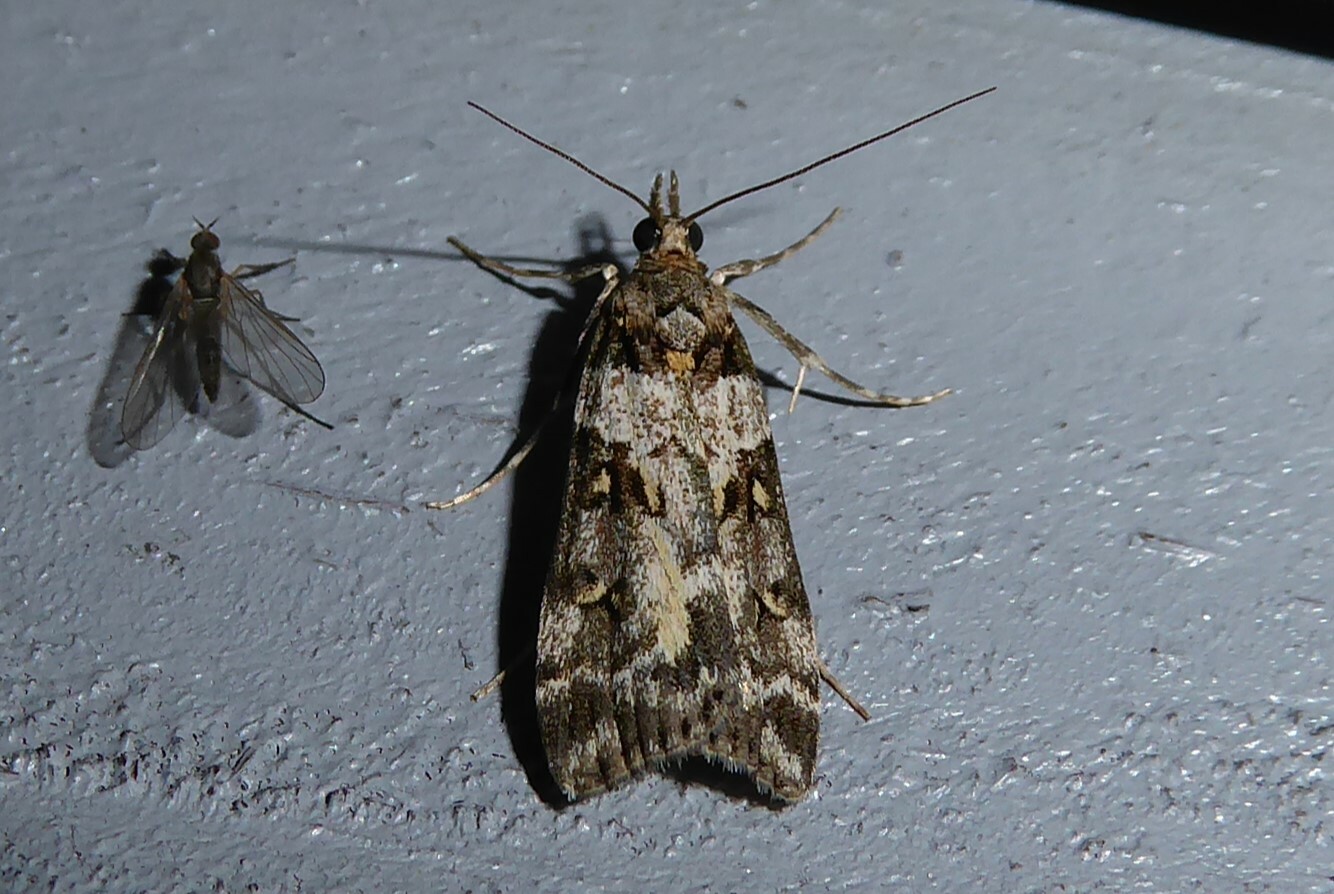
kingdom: Animalia
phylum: Arthropoda
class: Insecta
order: Lepidoptera
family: Crambidae
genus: Eudonia
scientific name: Eudonia diphtheralis
